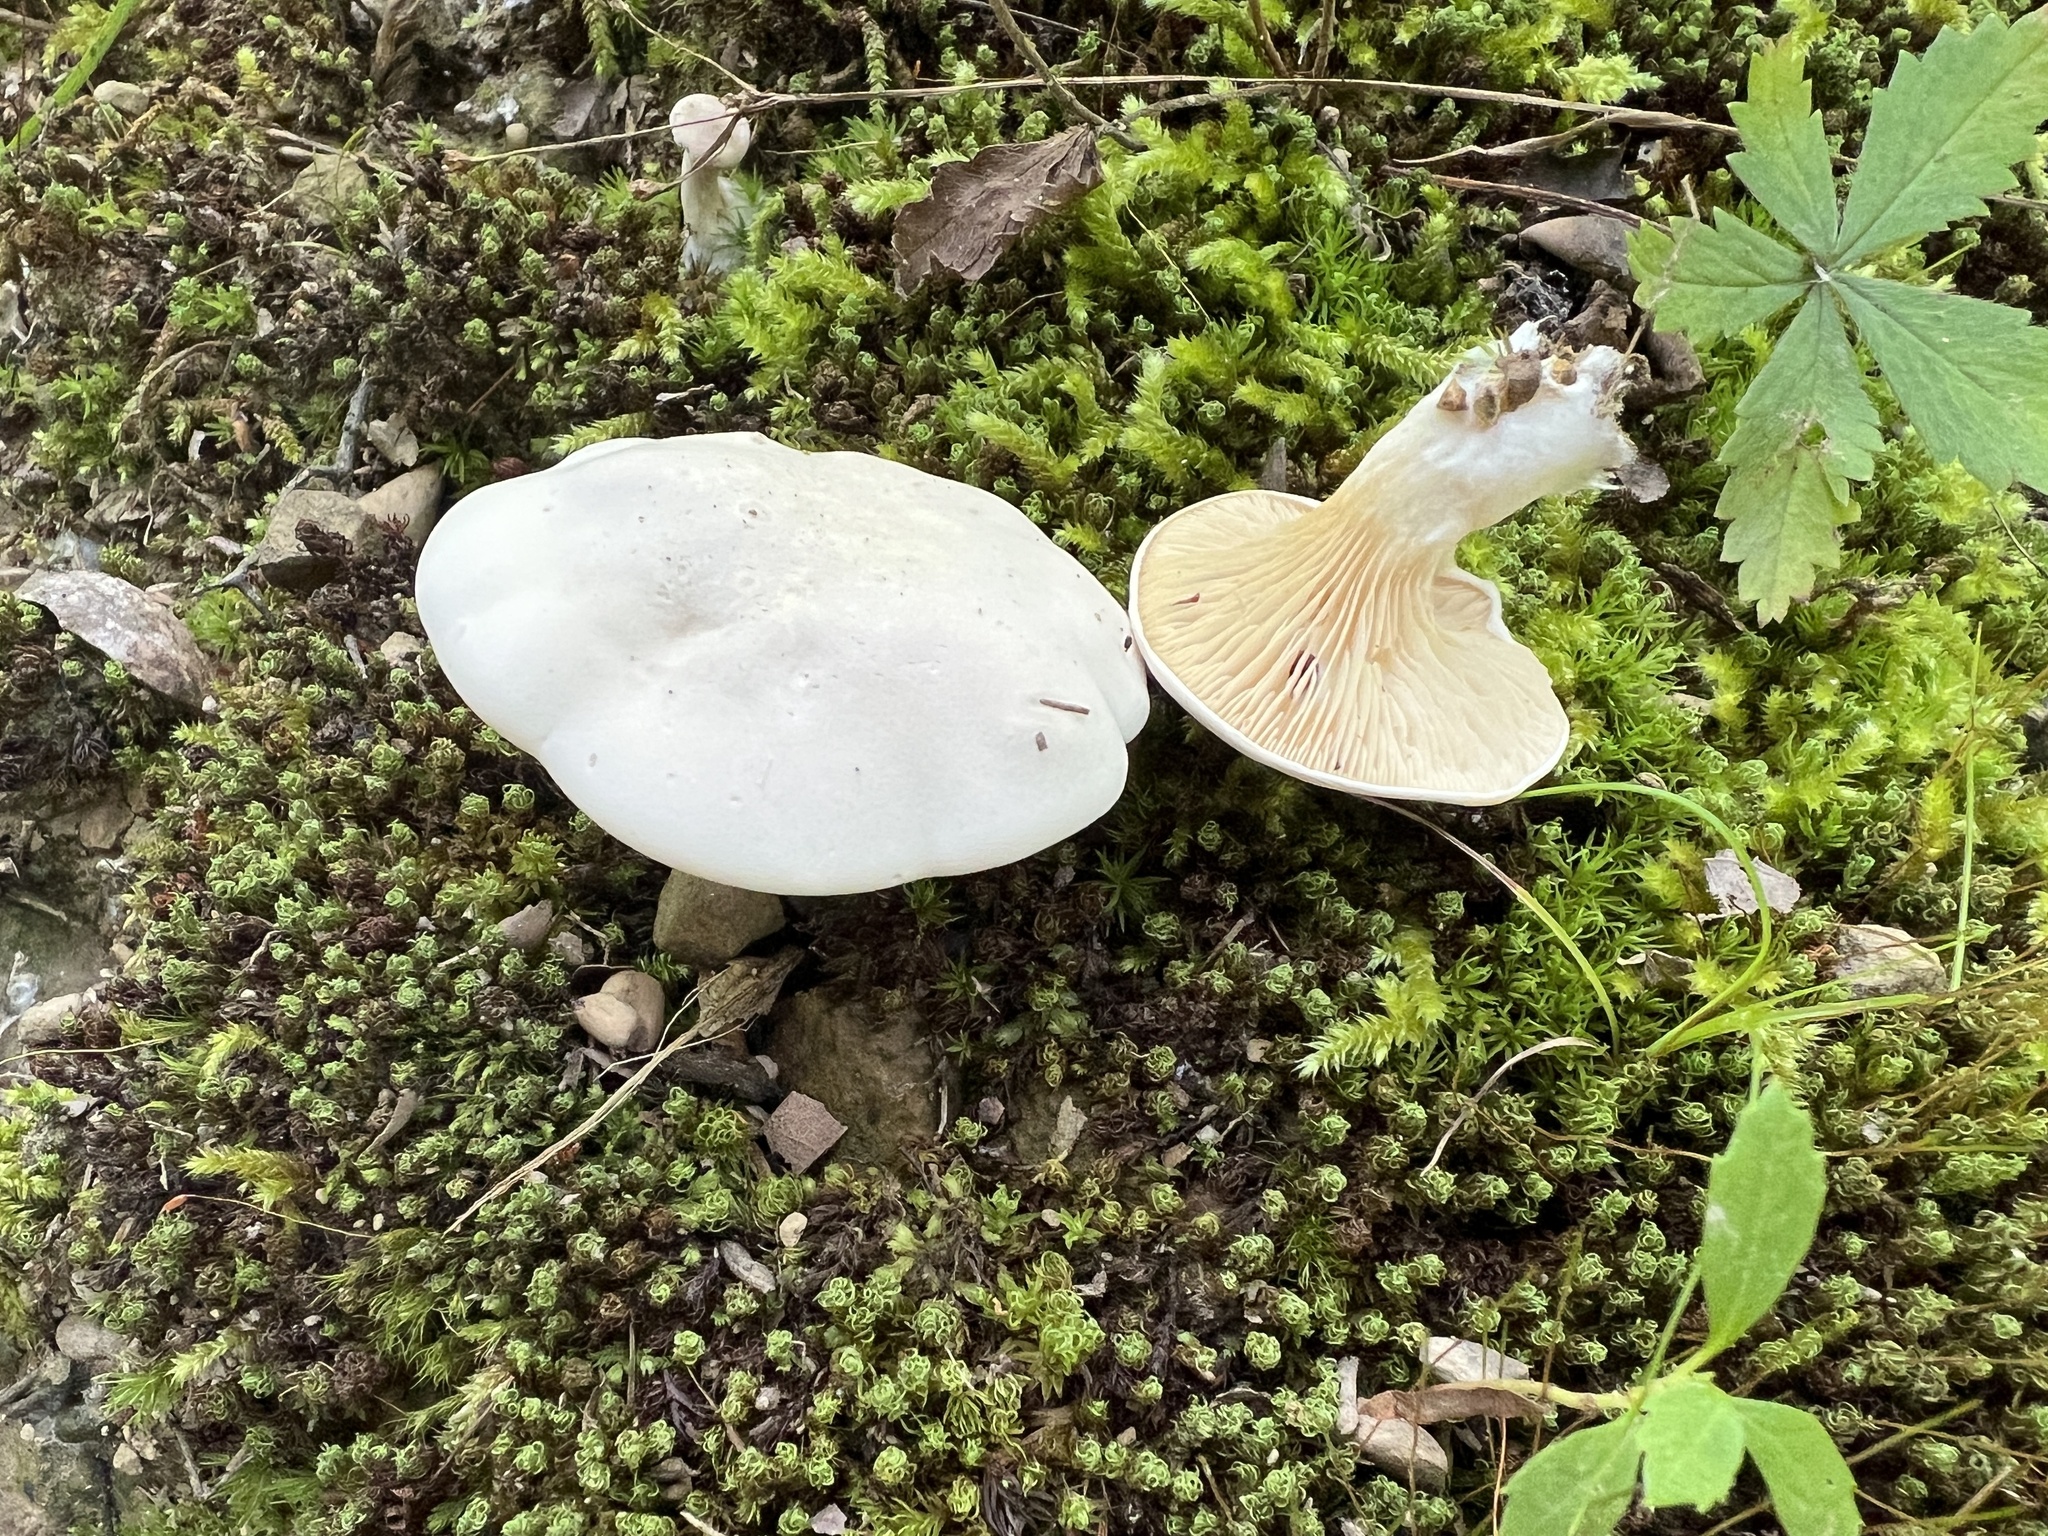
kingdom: Fungi
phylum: Basidiomycota
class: Agaricomycetes
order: Agaricales
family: Entolomataceae
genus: Clitopilus
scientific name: Clitopilus prunulus
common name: The miller
